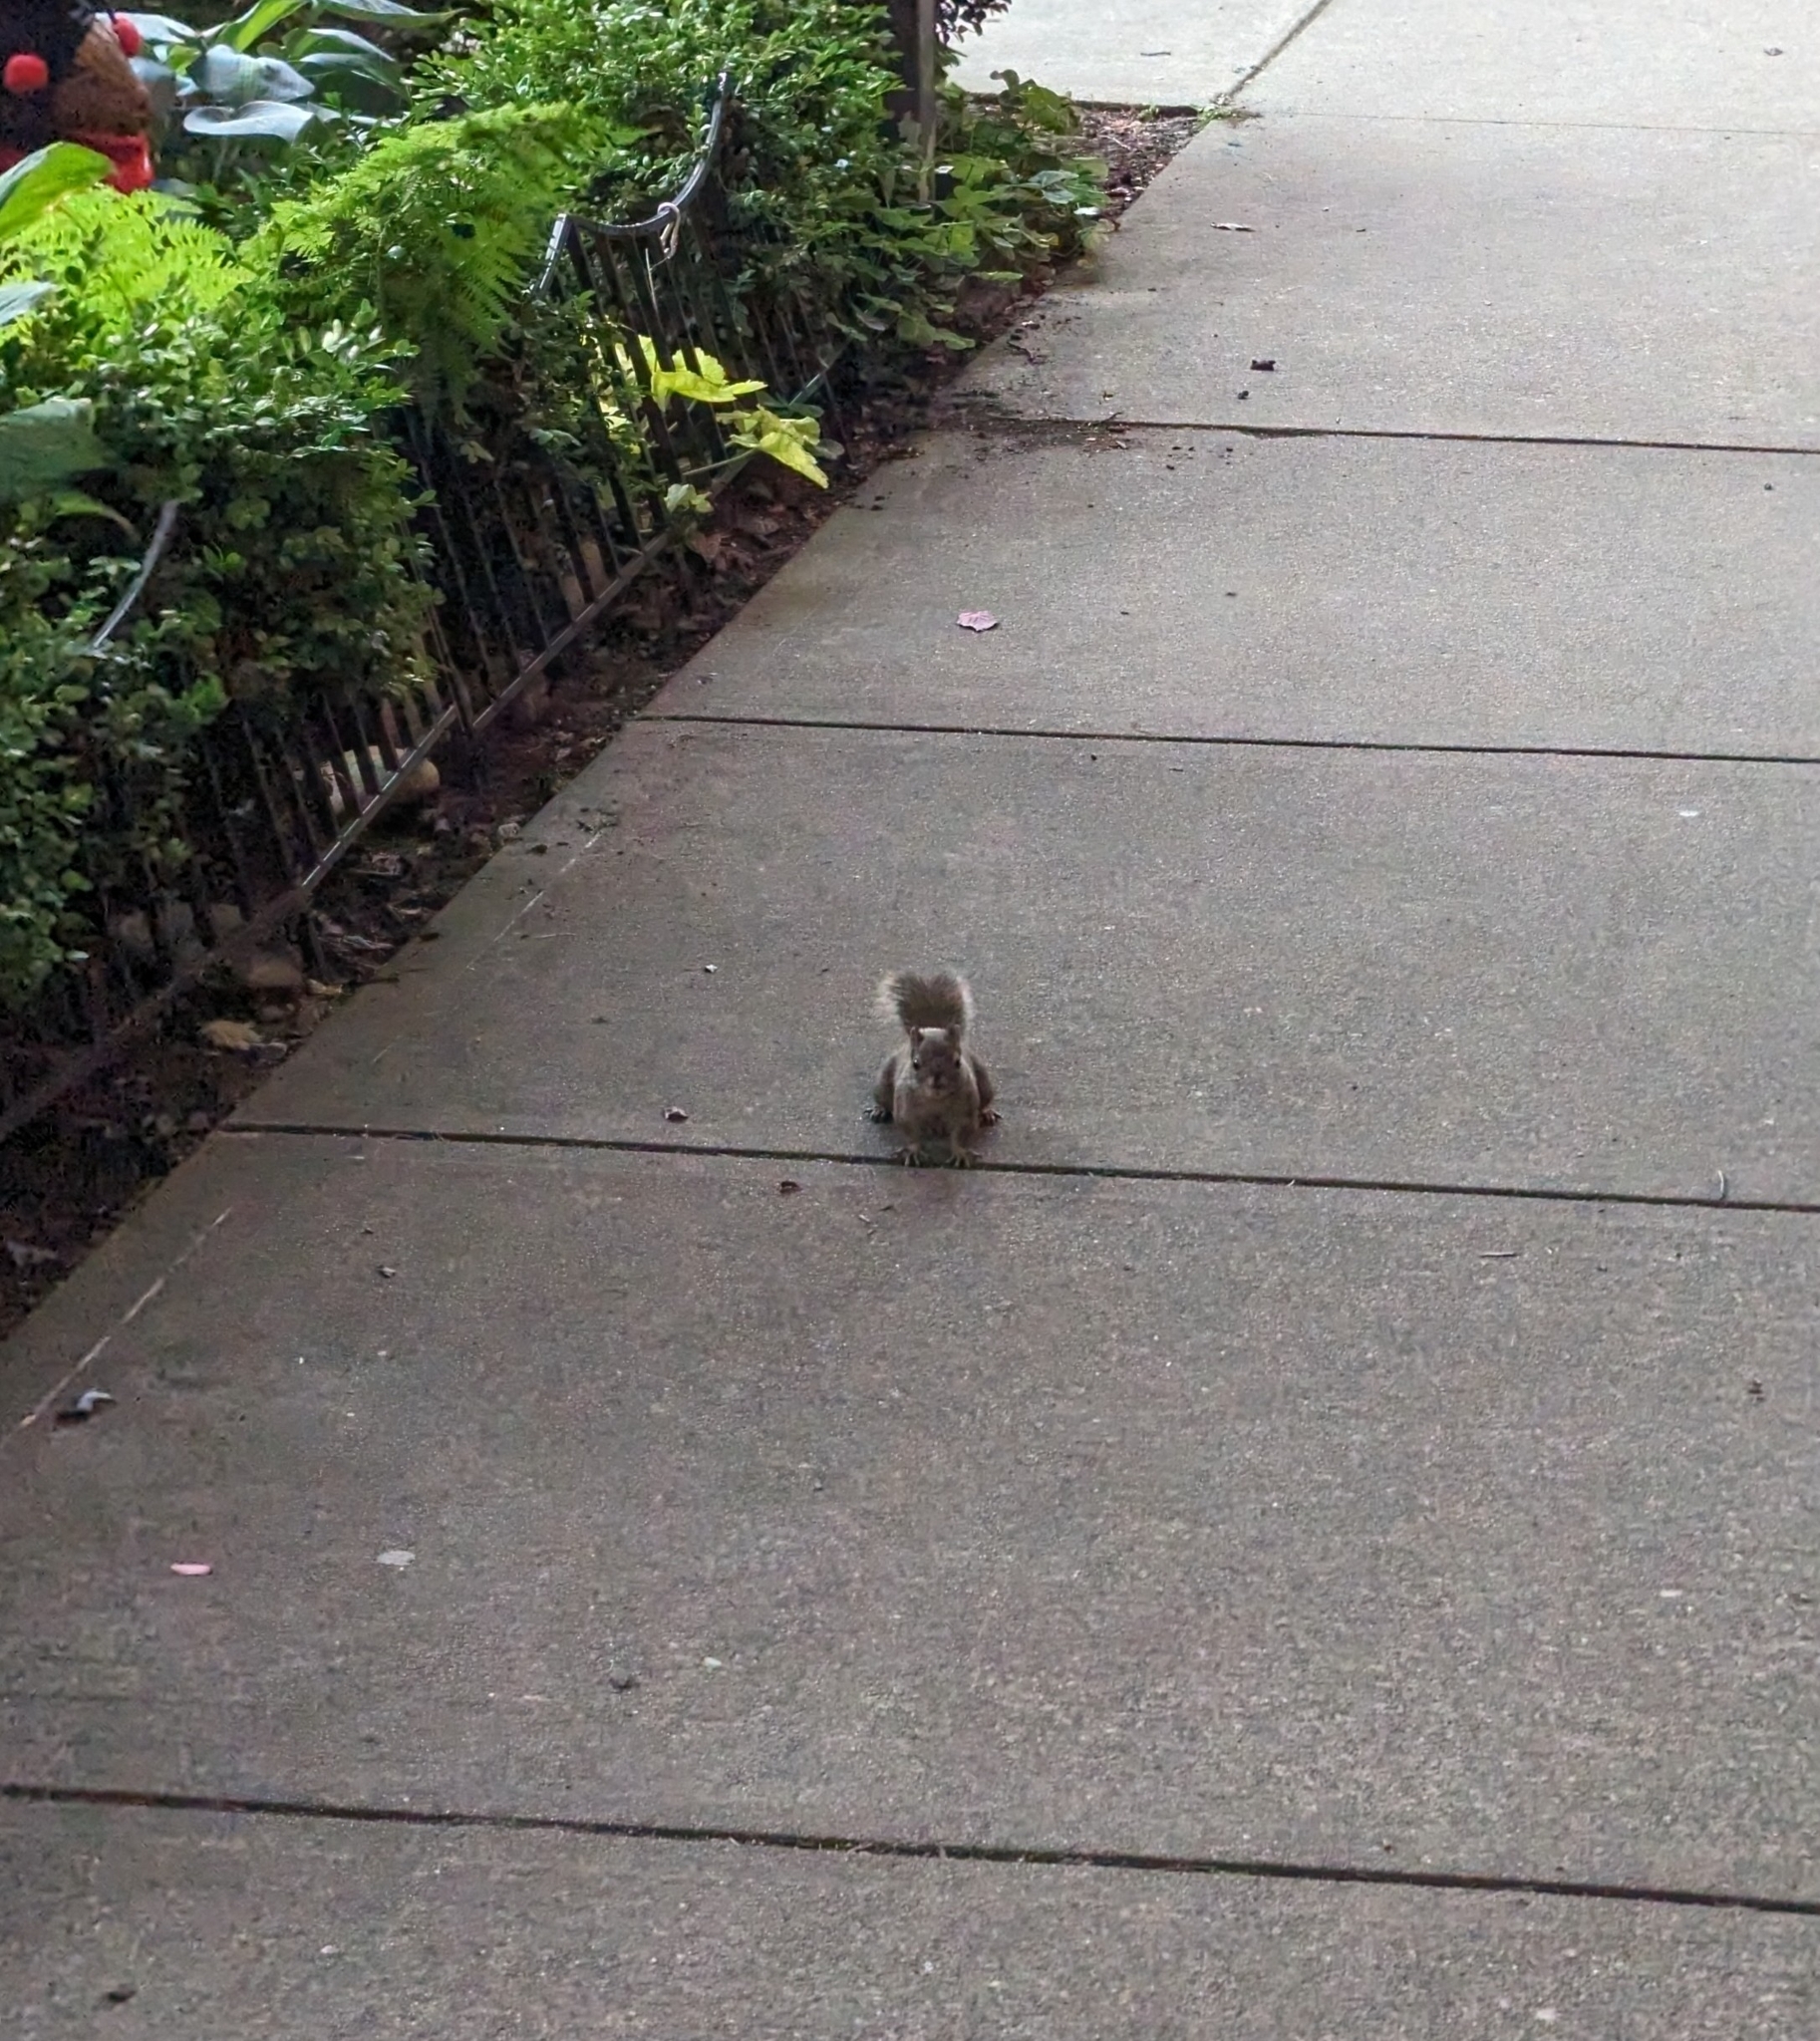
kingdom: Animalia
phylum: Chordata
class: Mammalia
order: Rodentia
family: Sciuridae
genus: Tamiasciurus
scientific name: Tamiasciurus douglasii
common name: Douglas's squirrel
